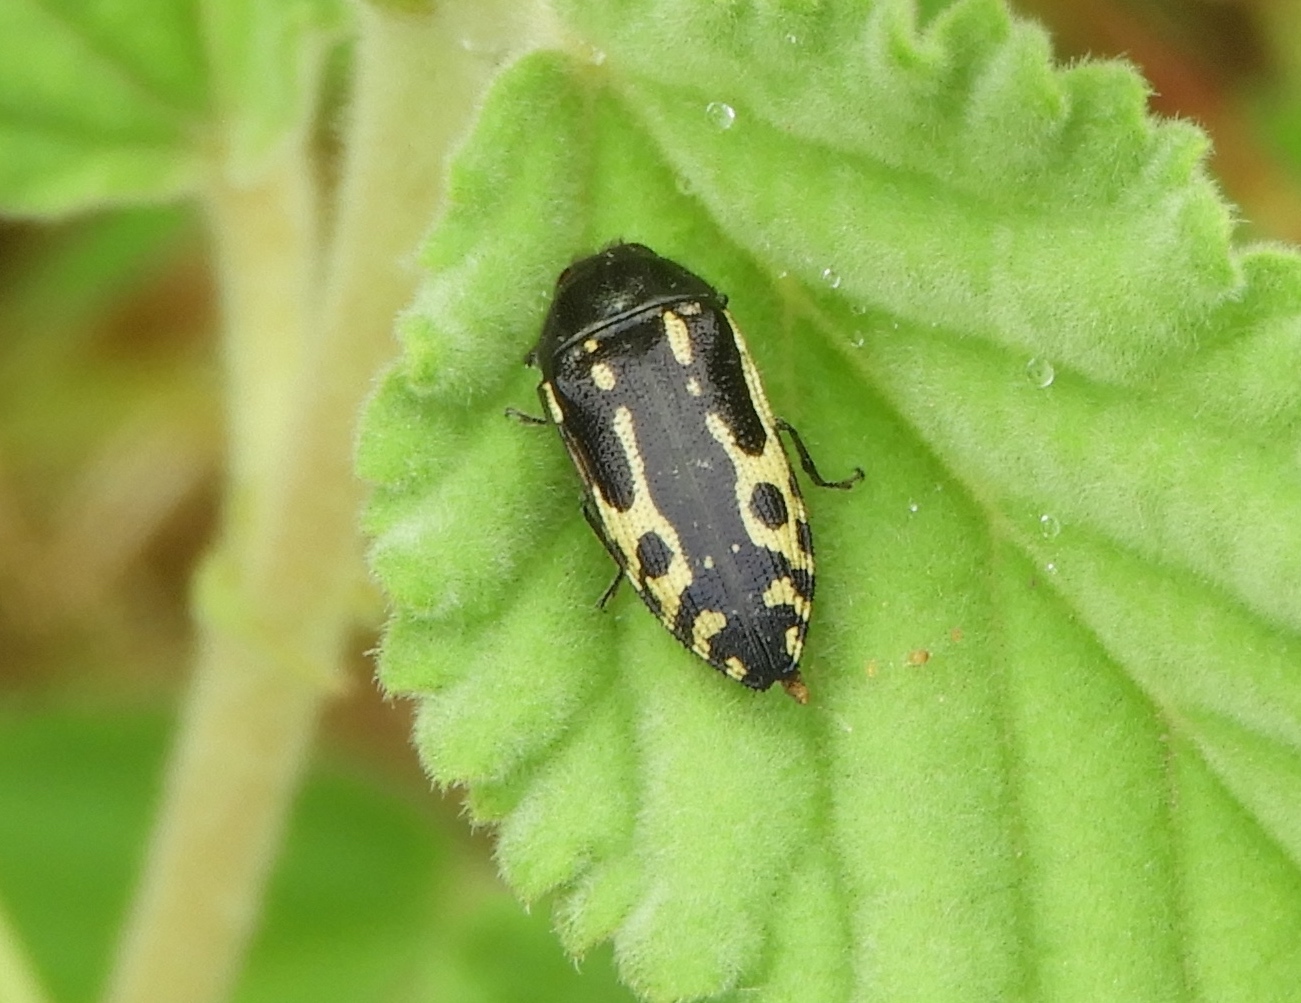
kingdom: Animalia
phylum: Arthropoda
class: Insecta
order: Coleoptera
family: Buprestidae
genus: Acmaeodera
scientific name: Acmaeodera scalaris
